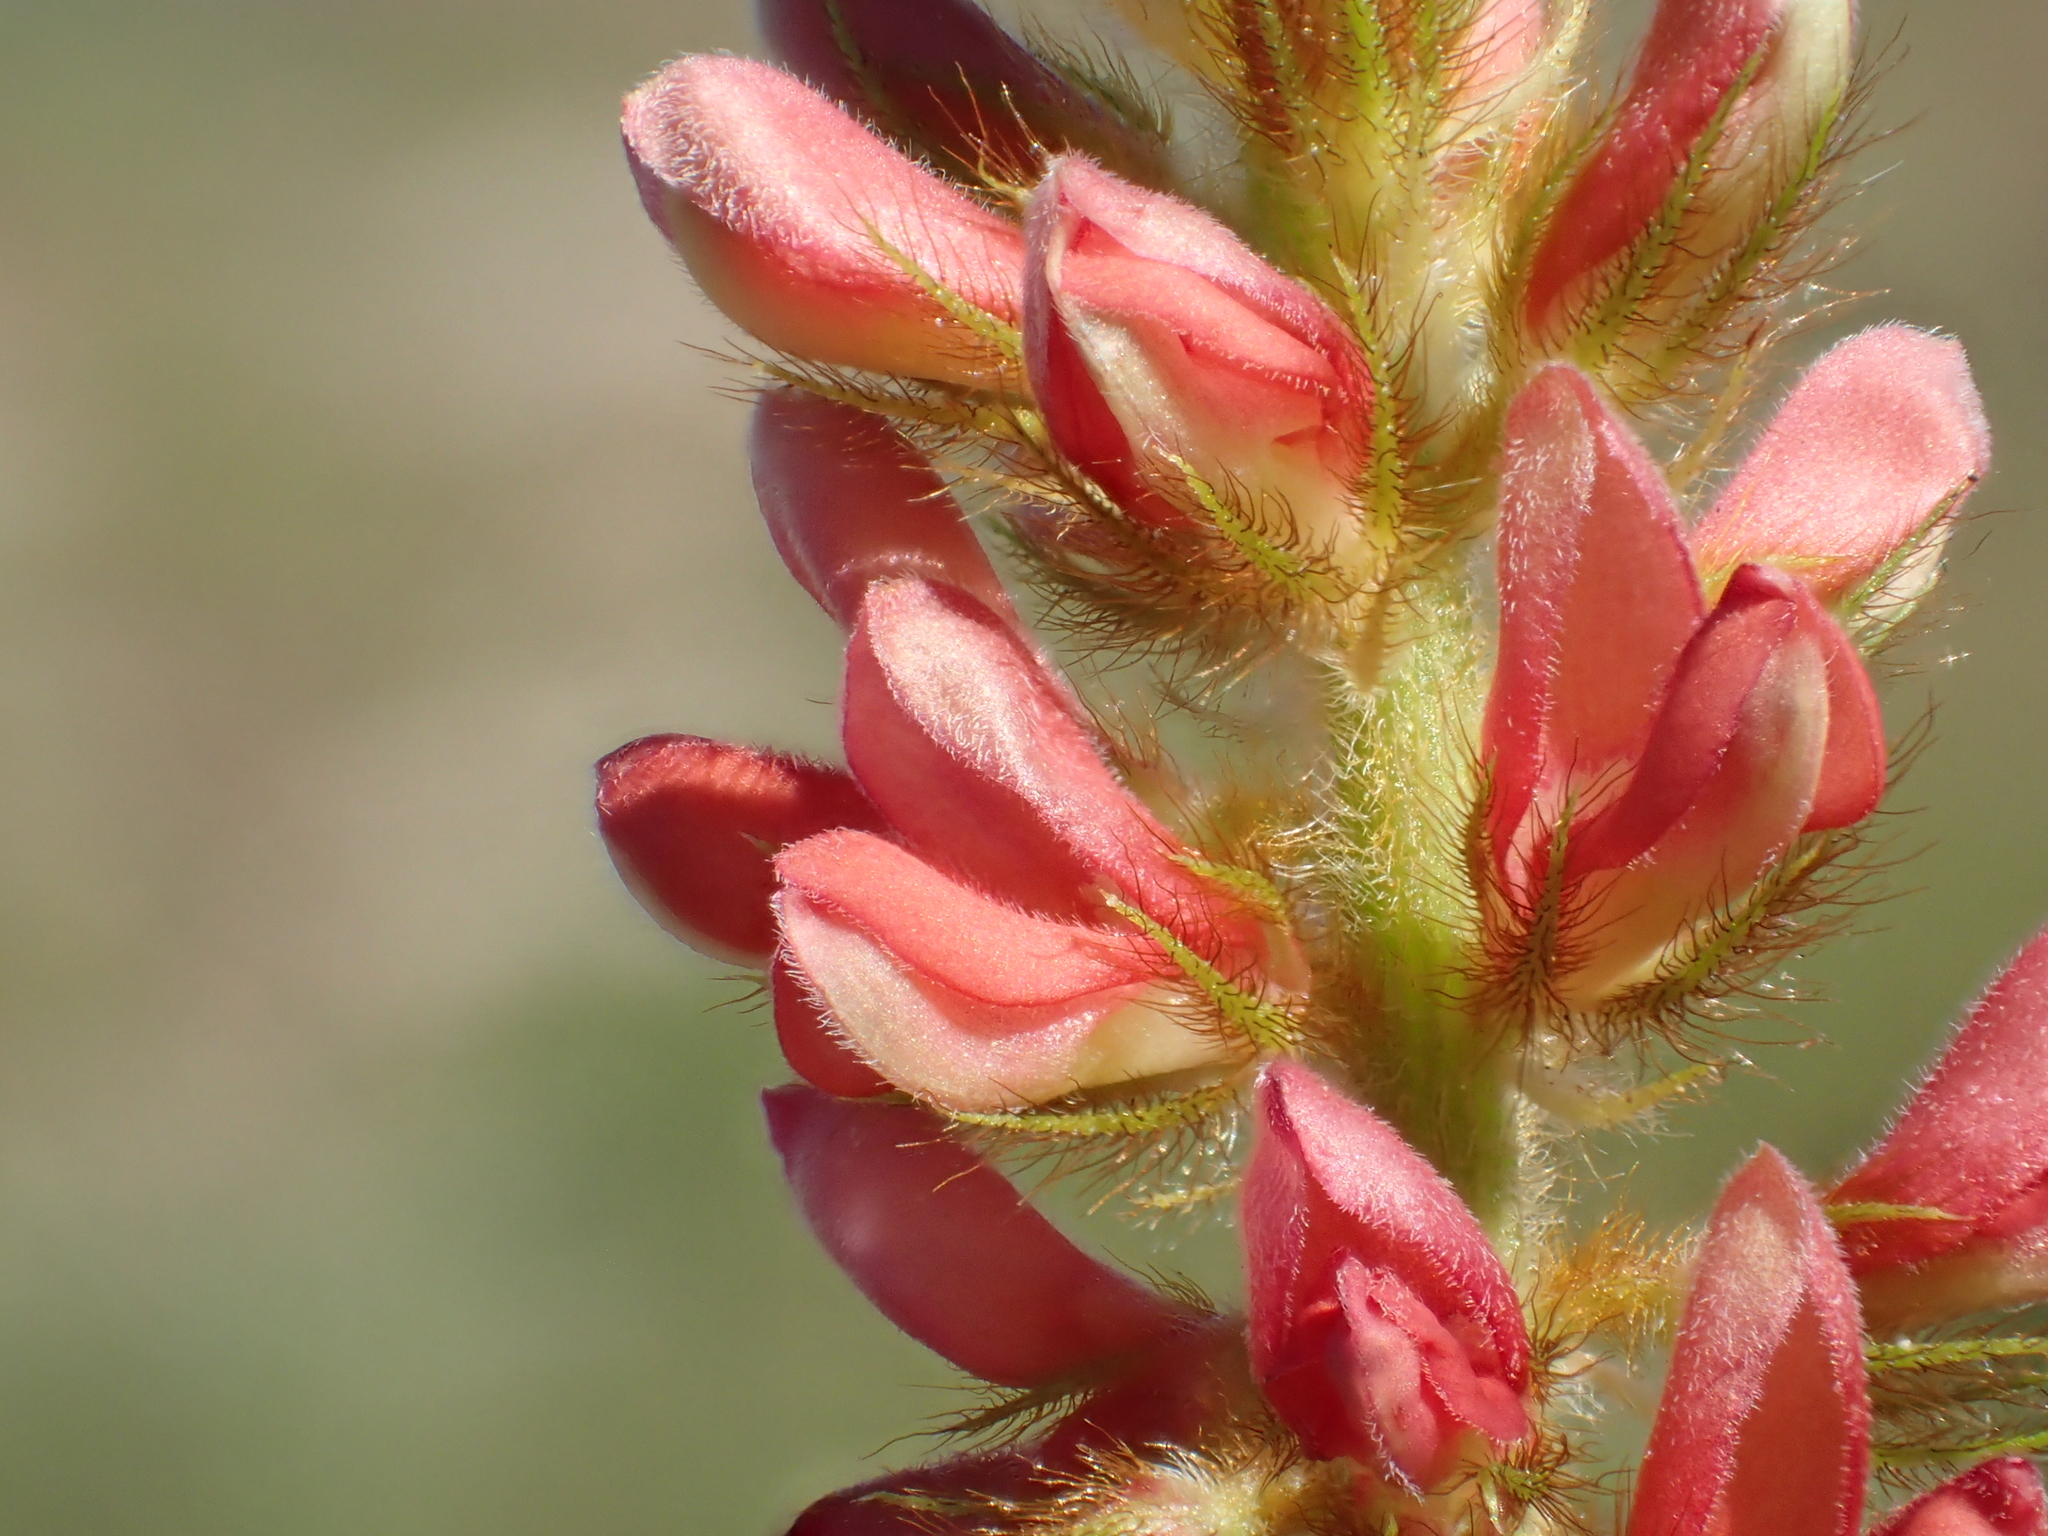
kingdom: Plantae
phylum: Tracheophyta
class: Magnoliopsida
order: Fabales
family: Fabaceae
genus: Indigofera
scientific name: Indigofera hirsuta
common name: Hairy indigo
